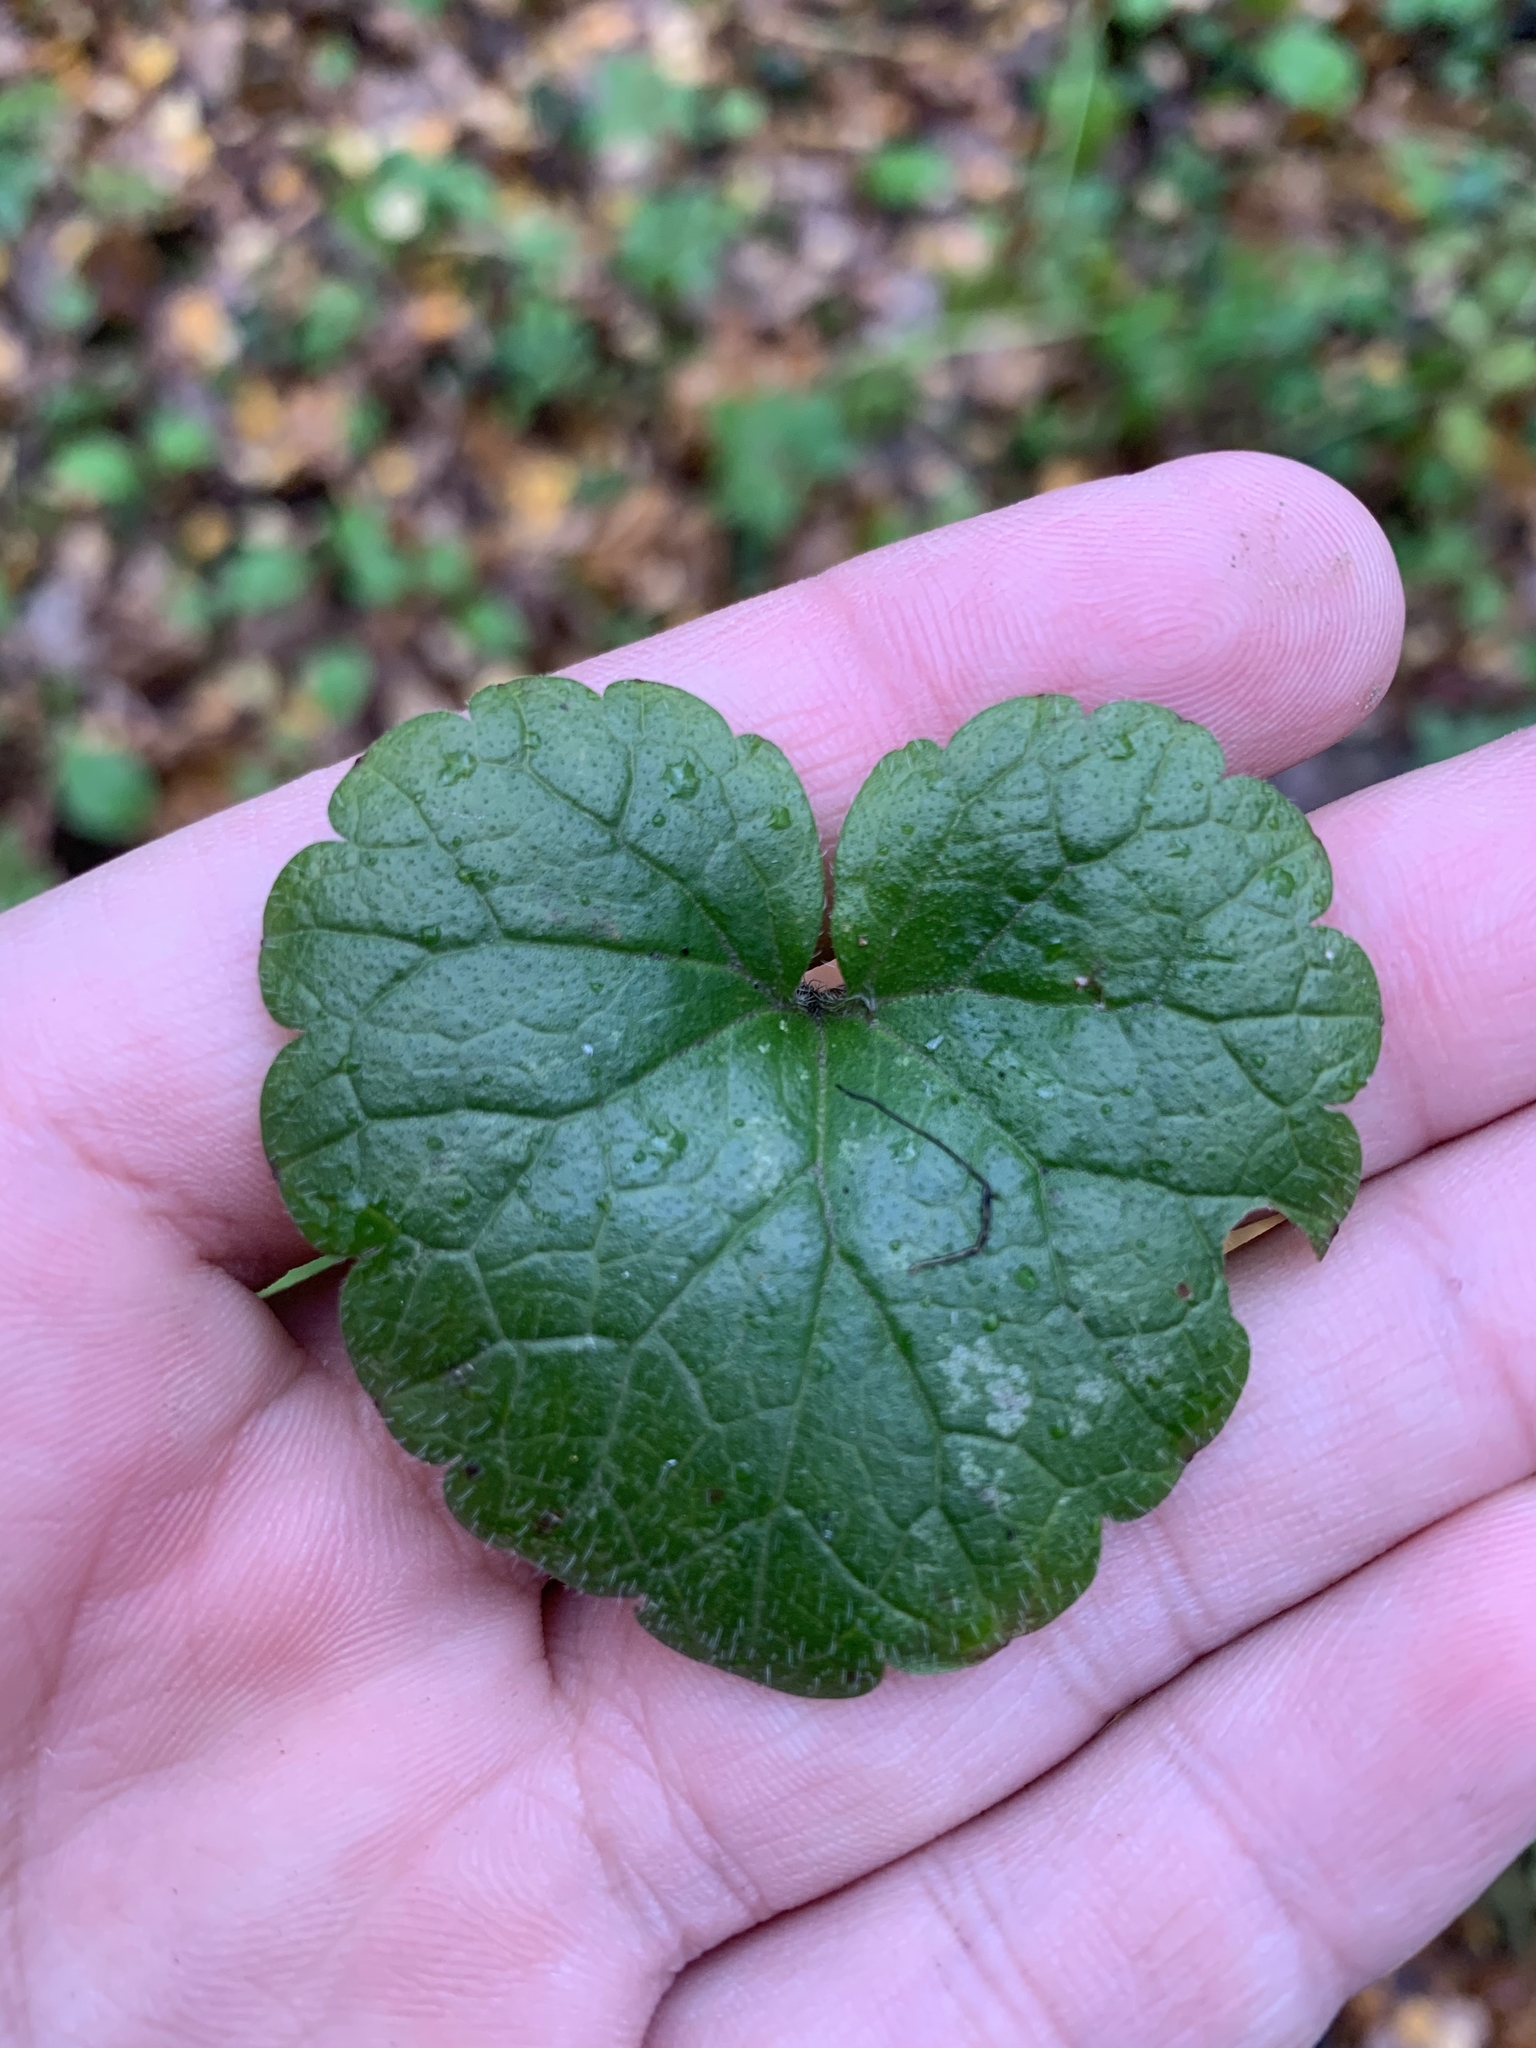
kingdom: Plantae
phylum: Tracheophyta
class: Magnoliopsida
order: Lamiales
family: Lamiaceae
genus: Glechoma
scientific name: Glechoma hederacea
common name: Ground ivy
